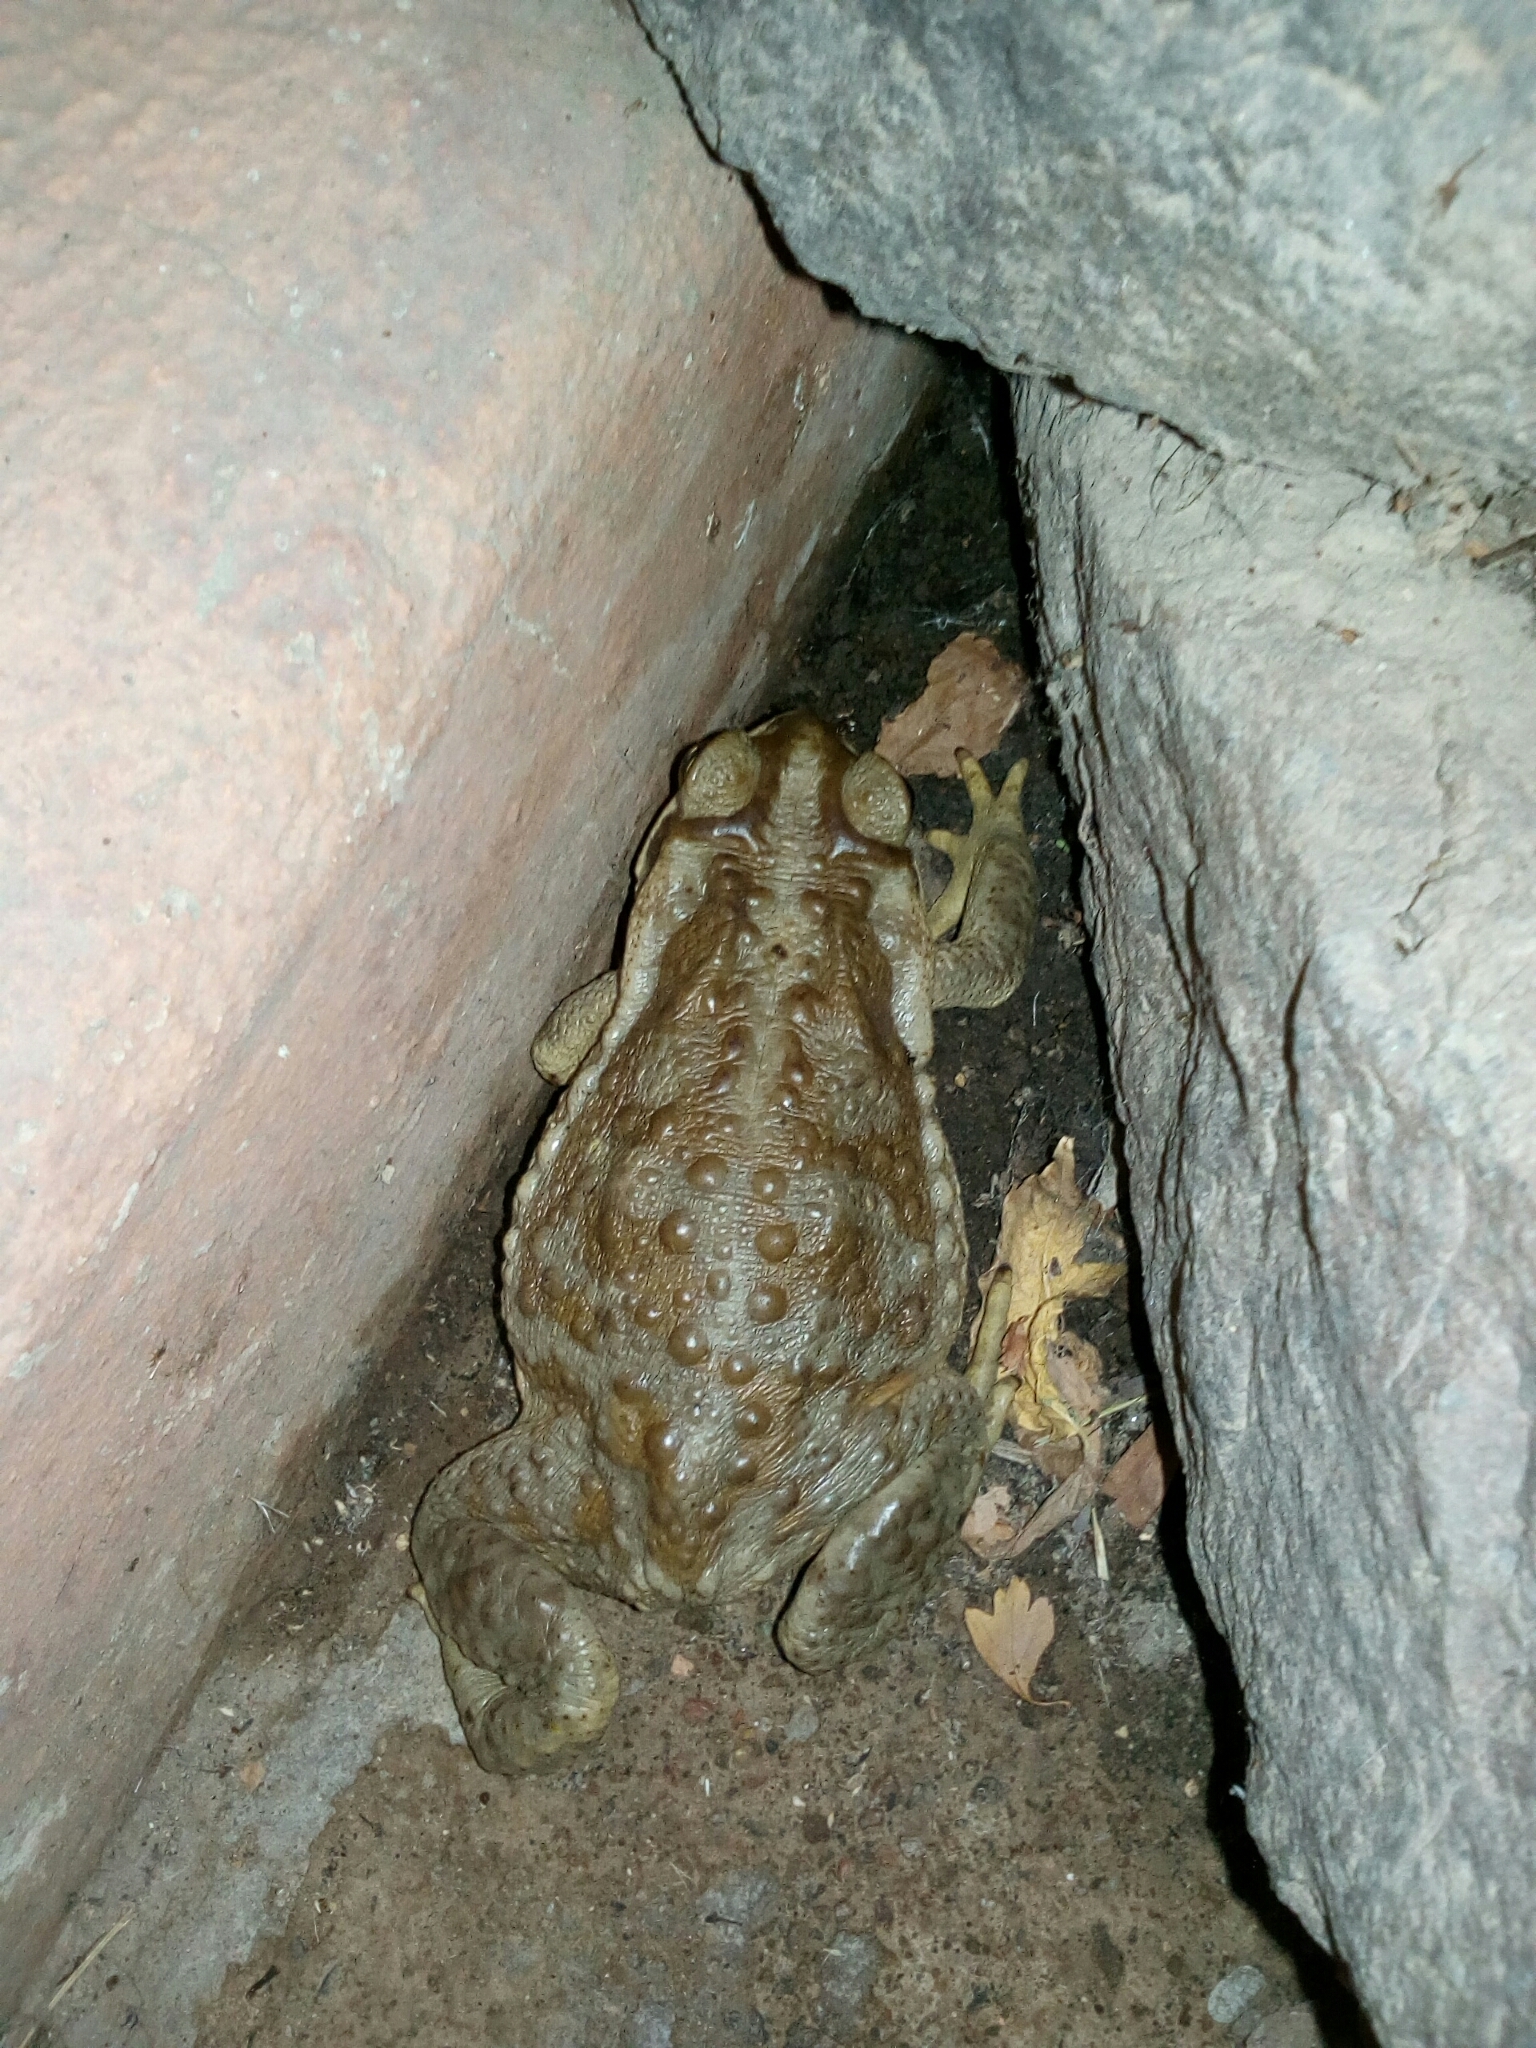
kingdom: Animalia
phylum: Chordata
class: Amphibia
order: Anura
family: Bufonidae
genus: Rhinella
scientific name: Rhinella arenarum
